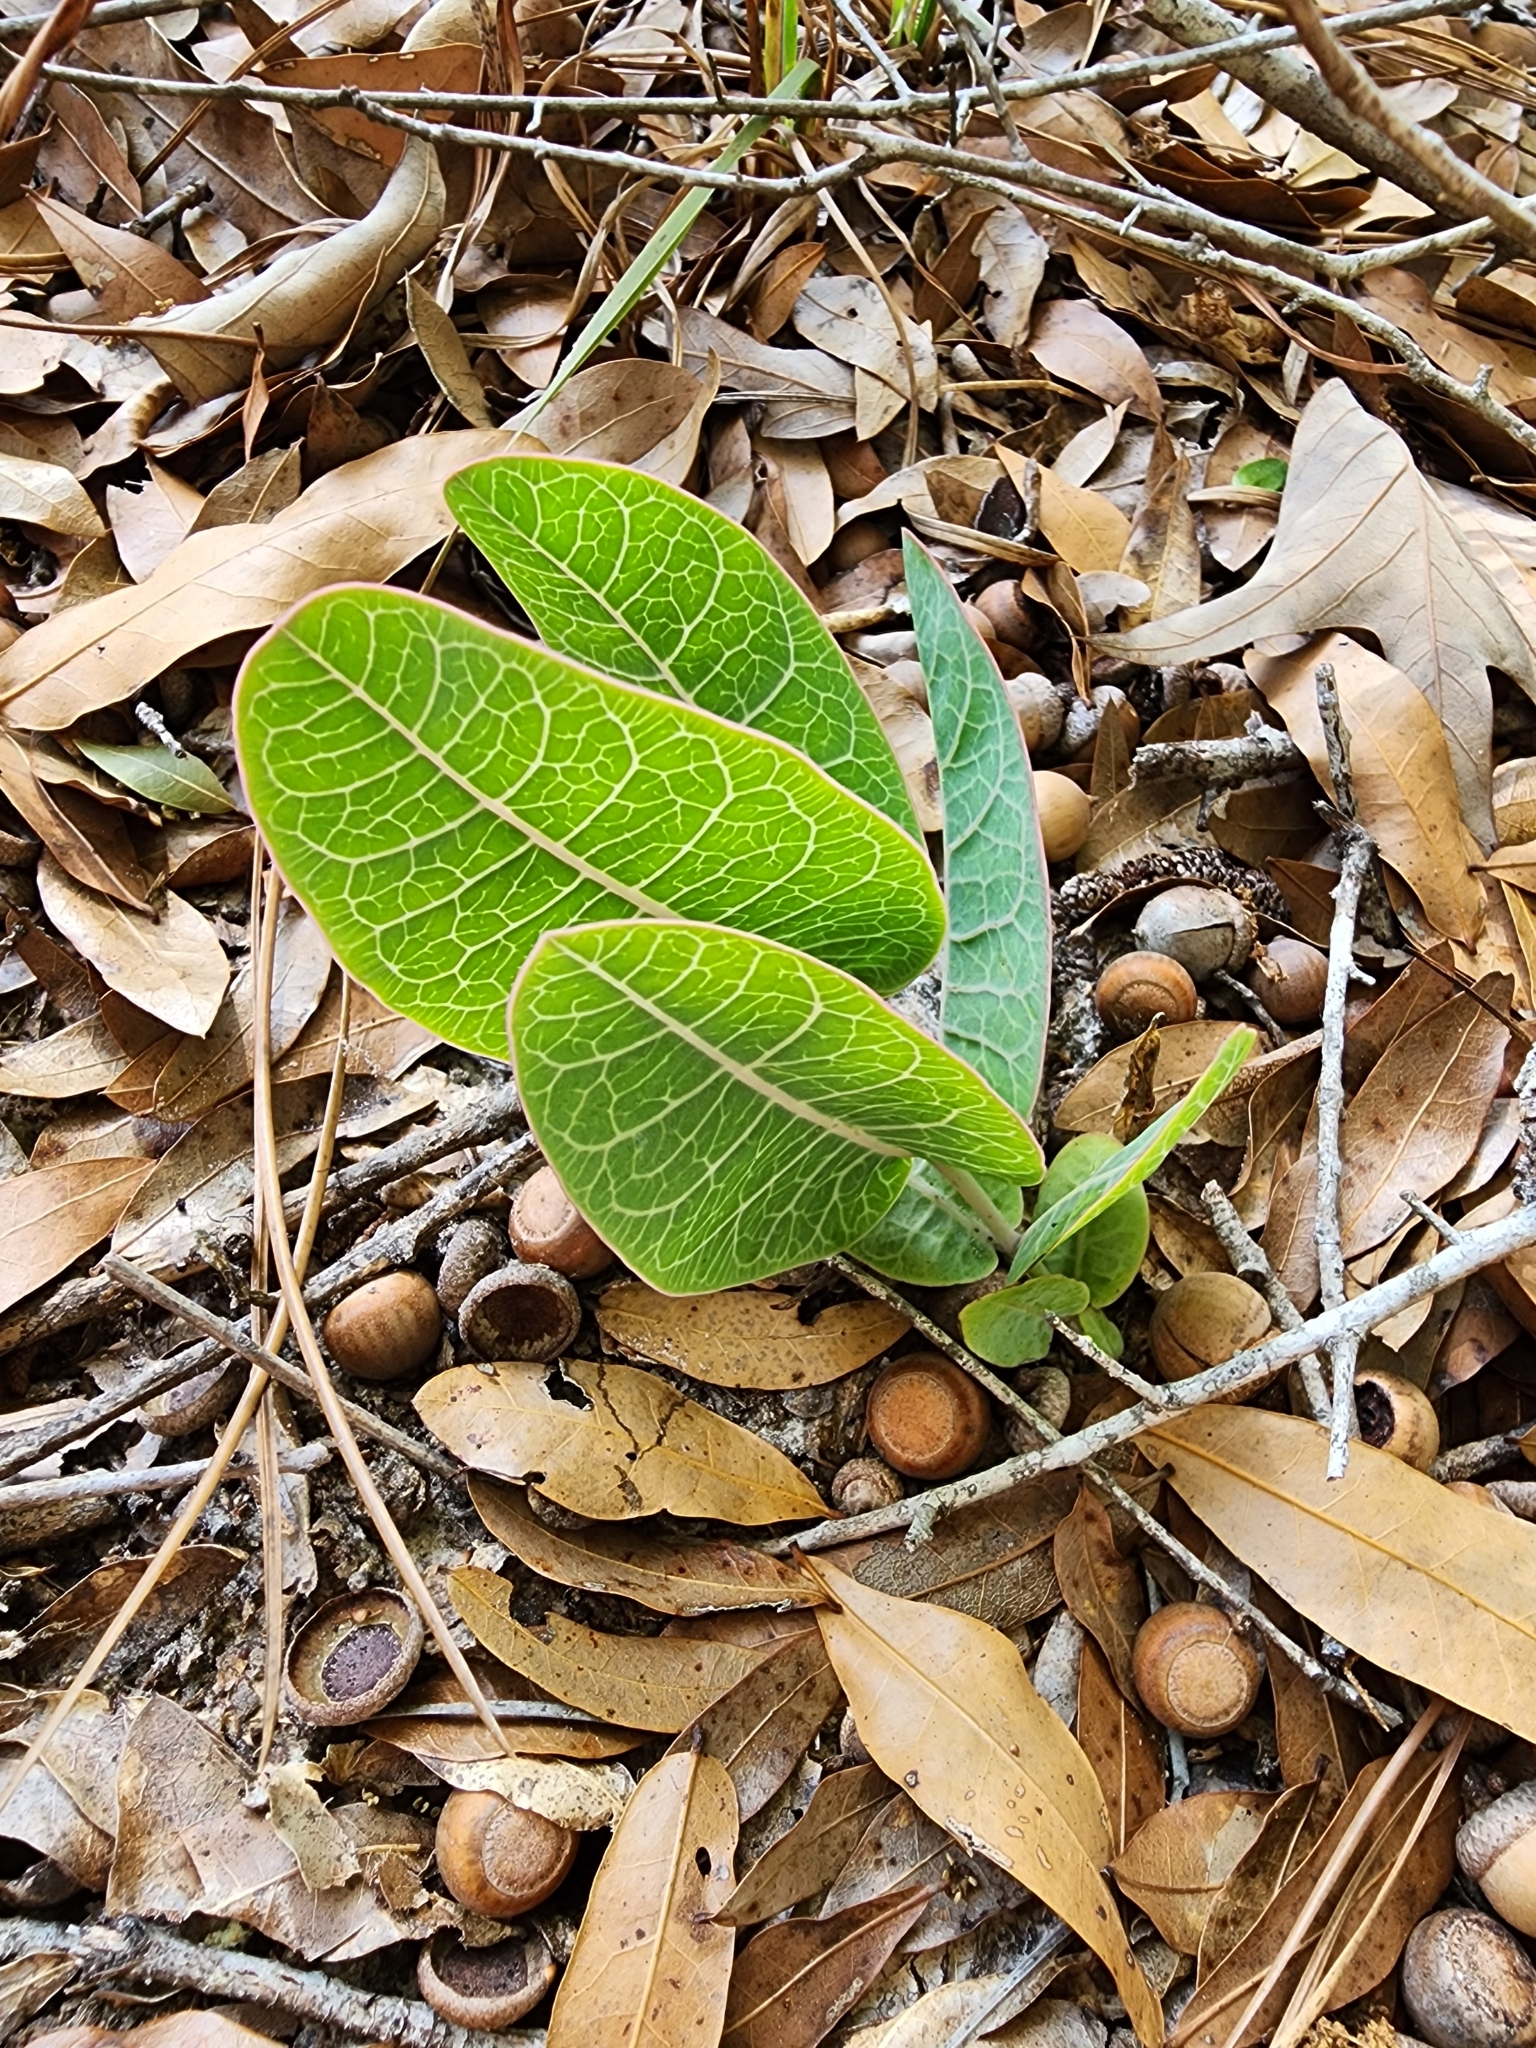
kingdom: Plantae
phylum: Tracheophyta
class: Magnoliopsida
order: Gentianales
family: Apocynaceae
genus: Asclepias
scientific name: Asclepias humistrata
